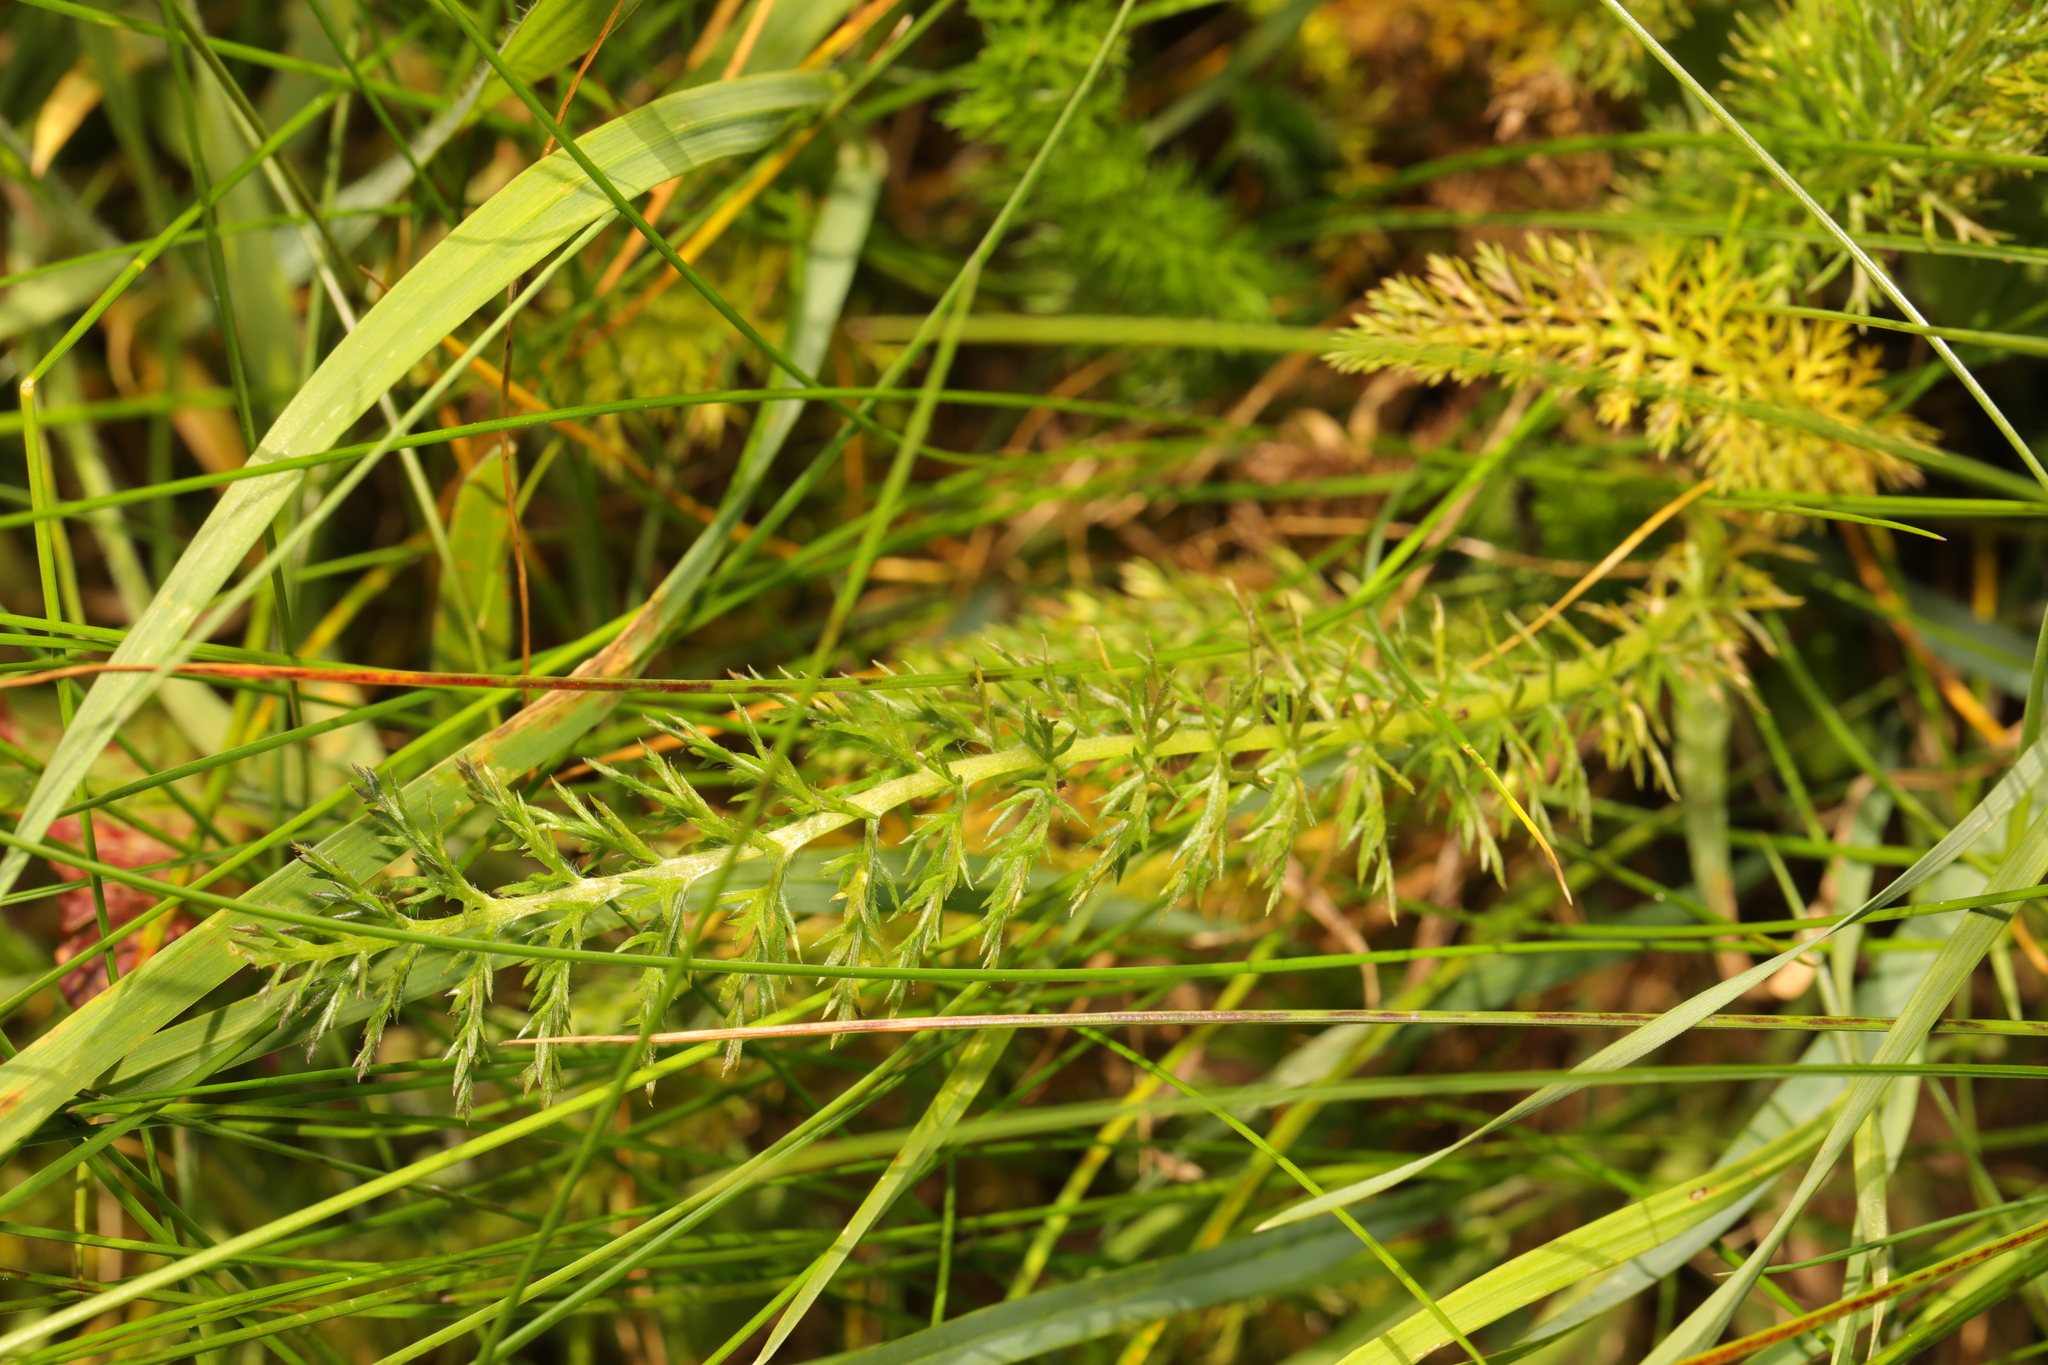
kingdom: Plantae
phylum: Tracheophyta
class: Magnoliopsida
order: Asterales
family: Asteraceae
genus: Achillea
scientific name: Achillea millefolium
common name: Yarrow
